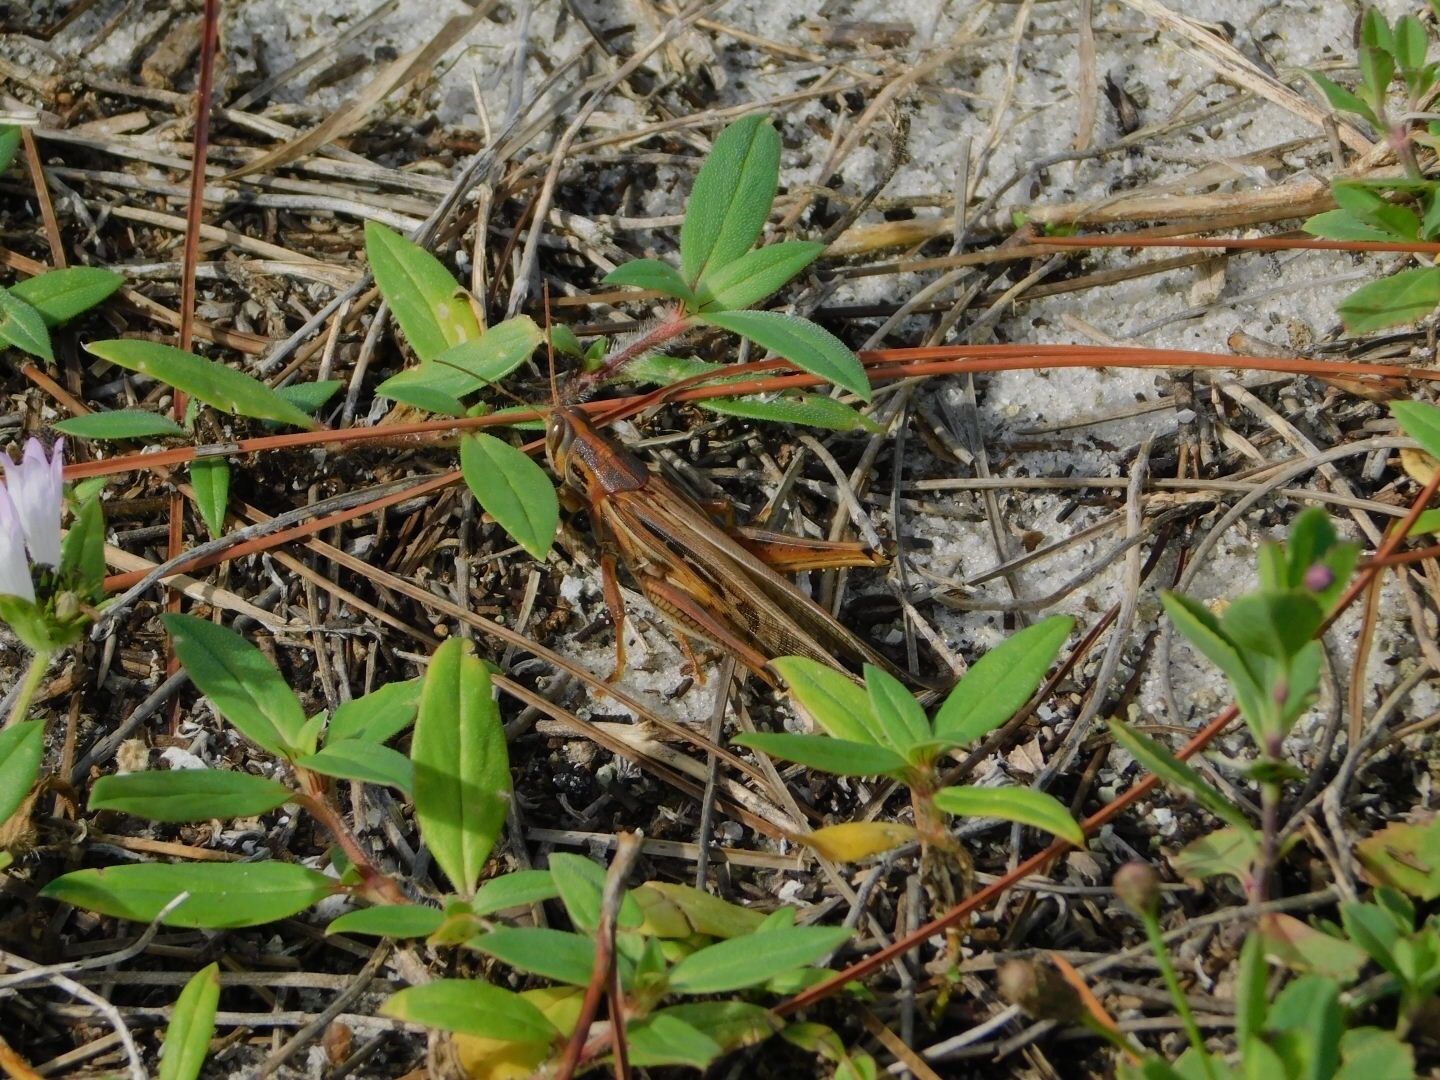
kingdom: Animalia
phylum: Arthropoda
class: Insecta
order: Orthoptera
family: Acrididae
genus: Schistocerca
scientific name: Schistocerca americana
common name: American bird locust
